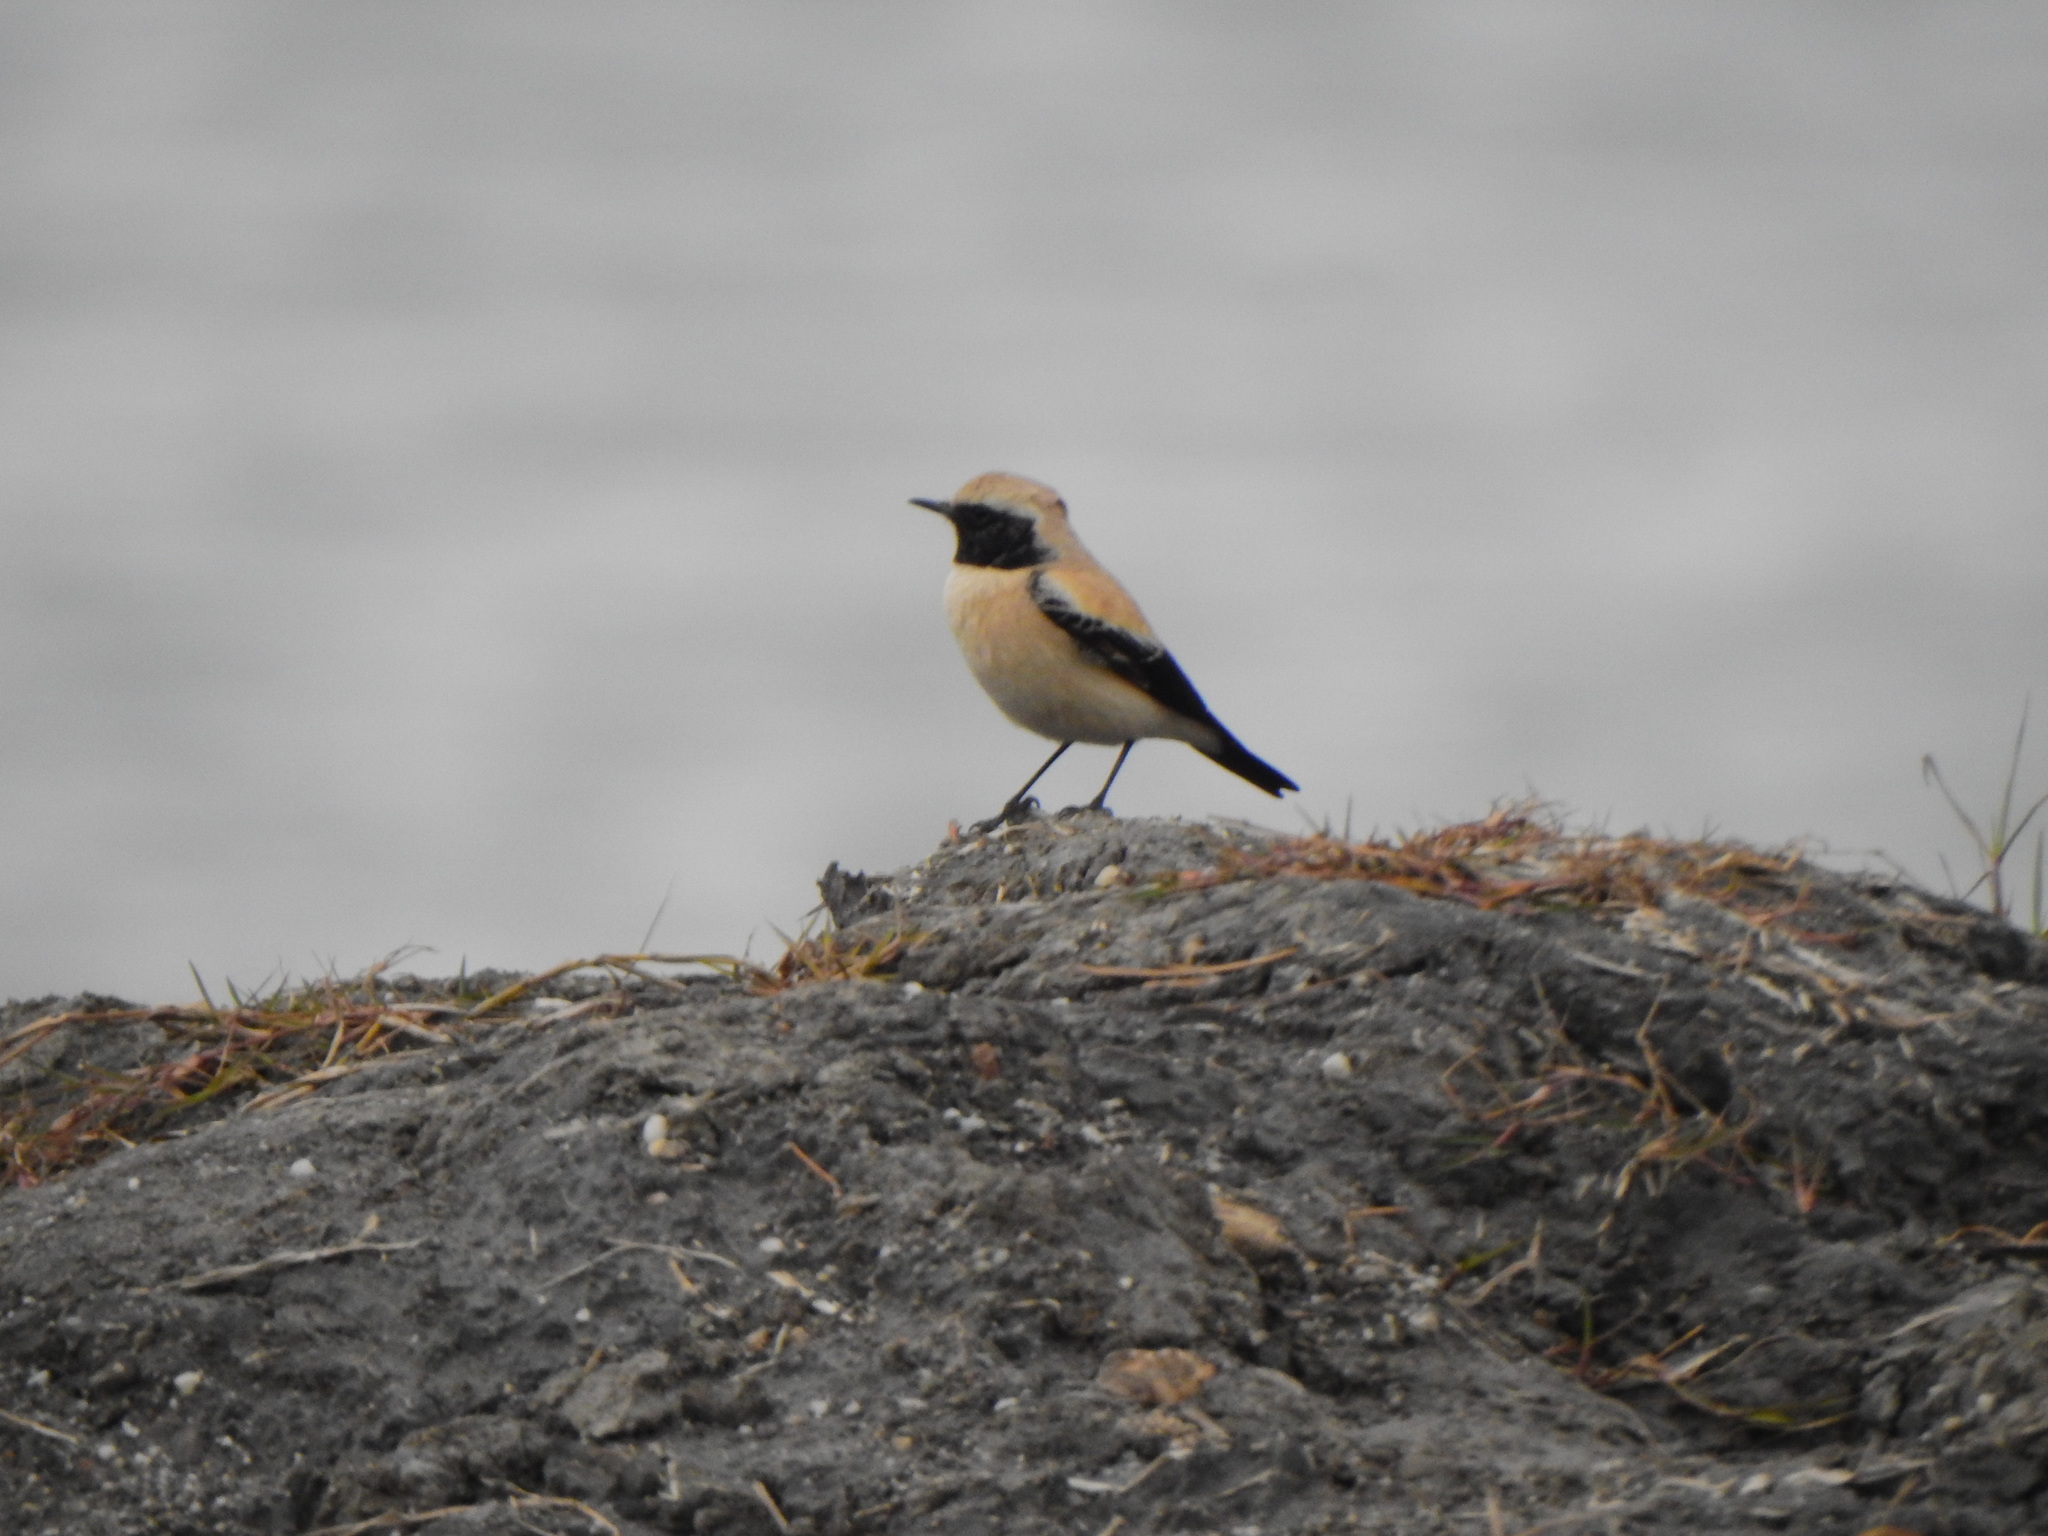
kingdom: Animalia
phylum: Chordata
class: Aves
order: Passeriformes
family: Muscicapidae
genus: Oenanthe
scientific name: Oenanthe deserti
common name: Desert wheatear
